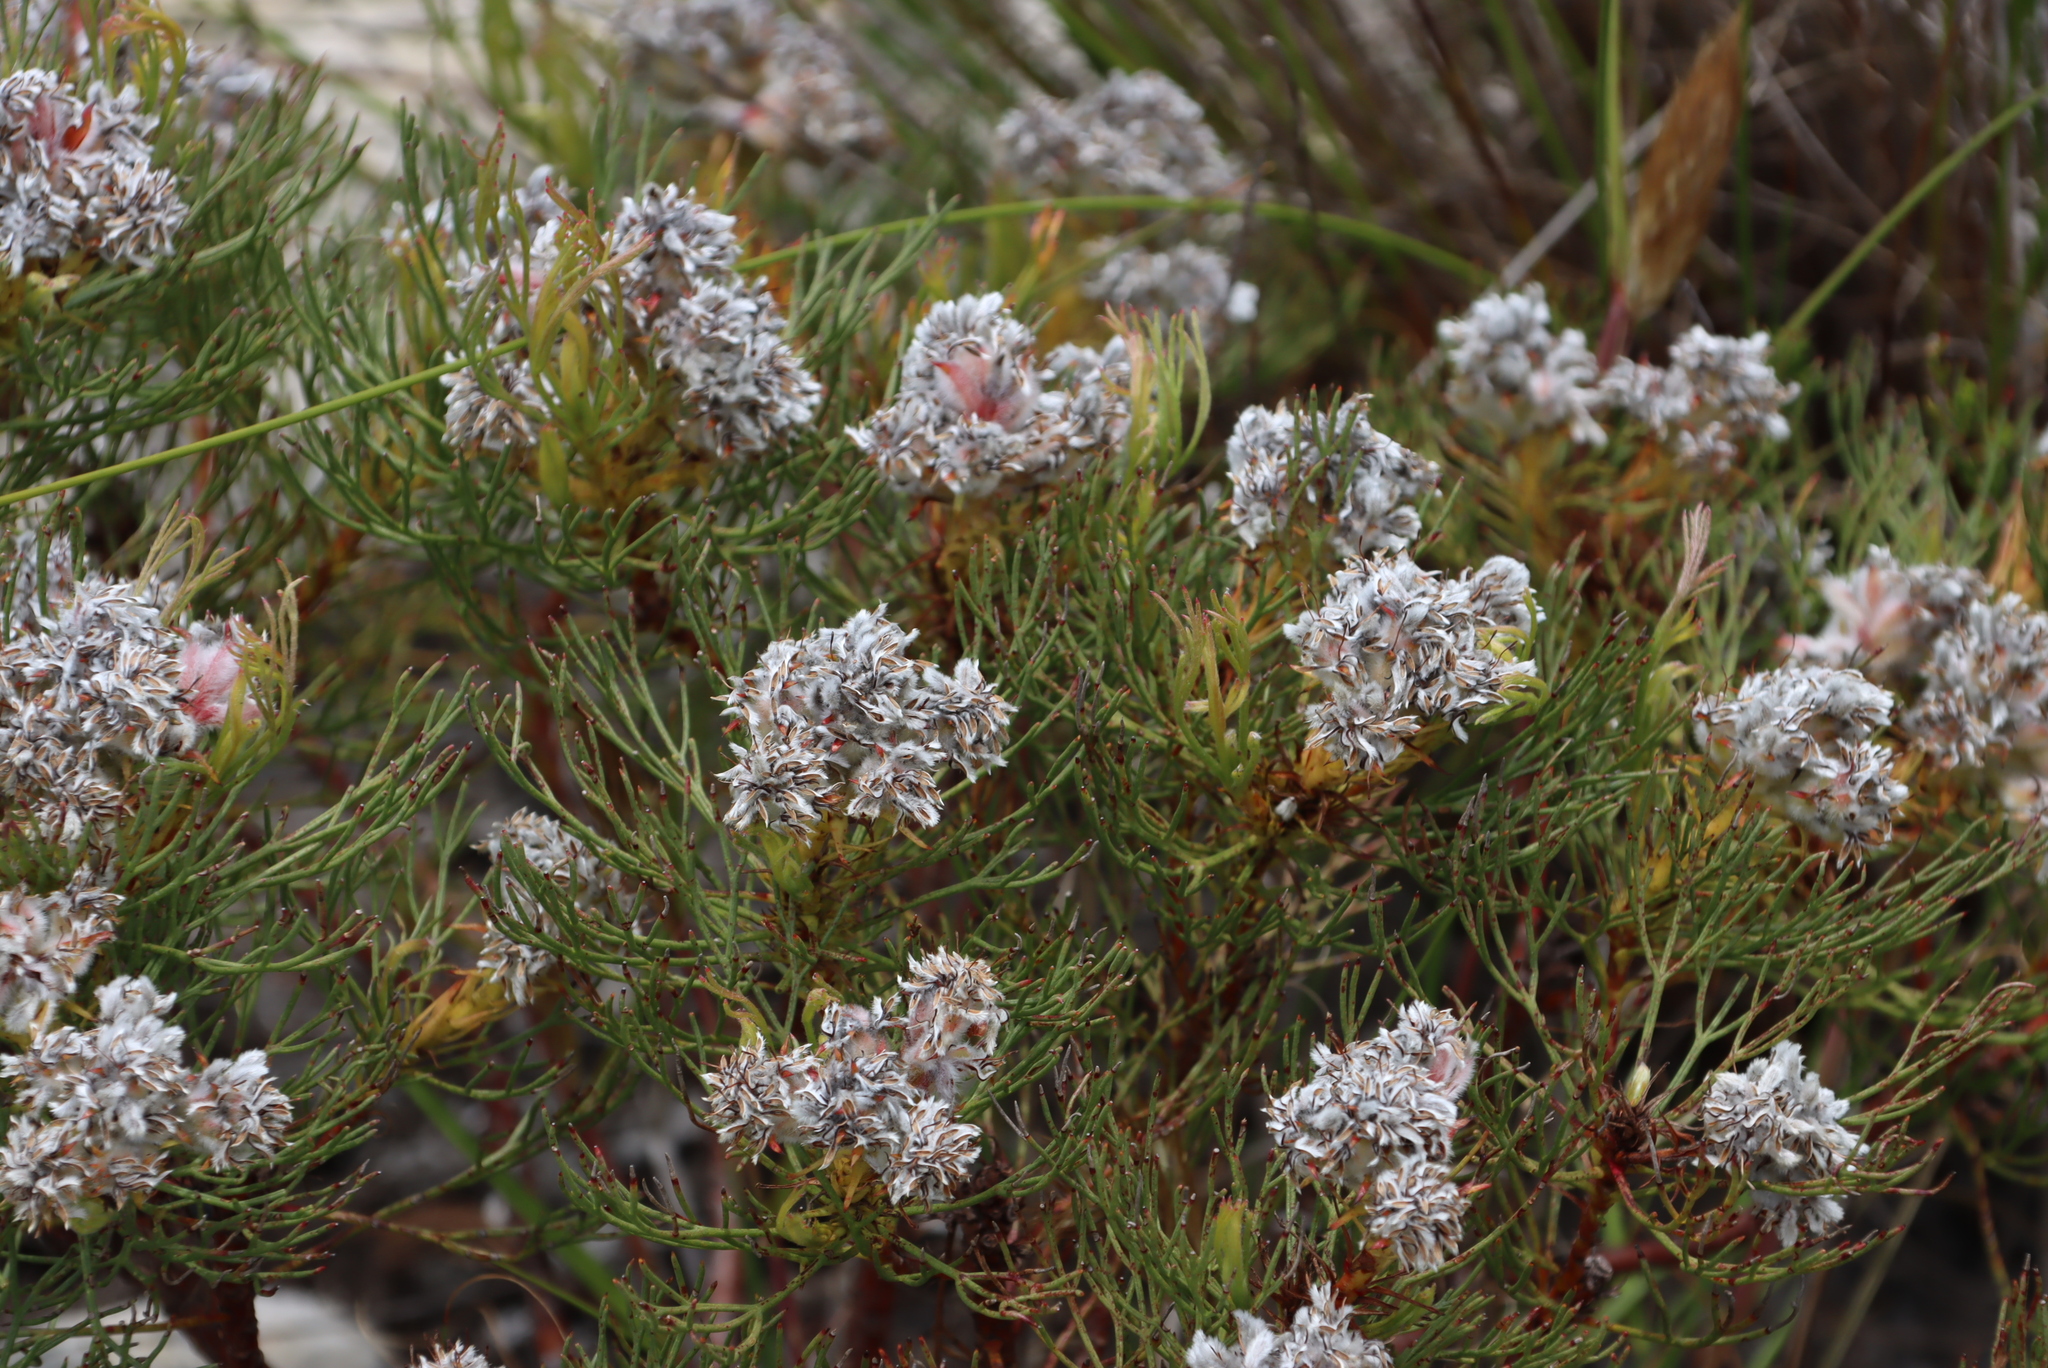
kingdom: Plantae
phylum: Tracheophyta
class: Magnoliopsida
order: Proteales
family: Proteaceae
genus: Serruria
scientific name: Serruria glomerata
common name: Cluster spiderhead
